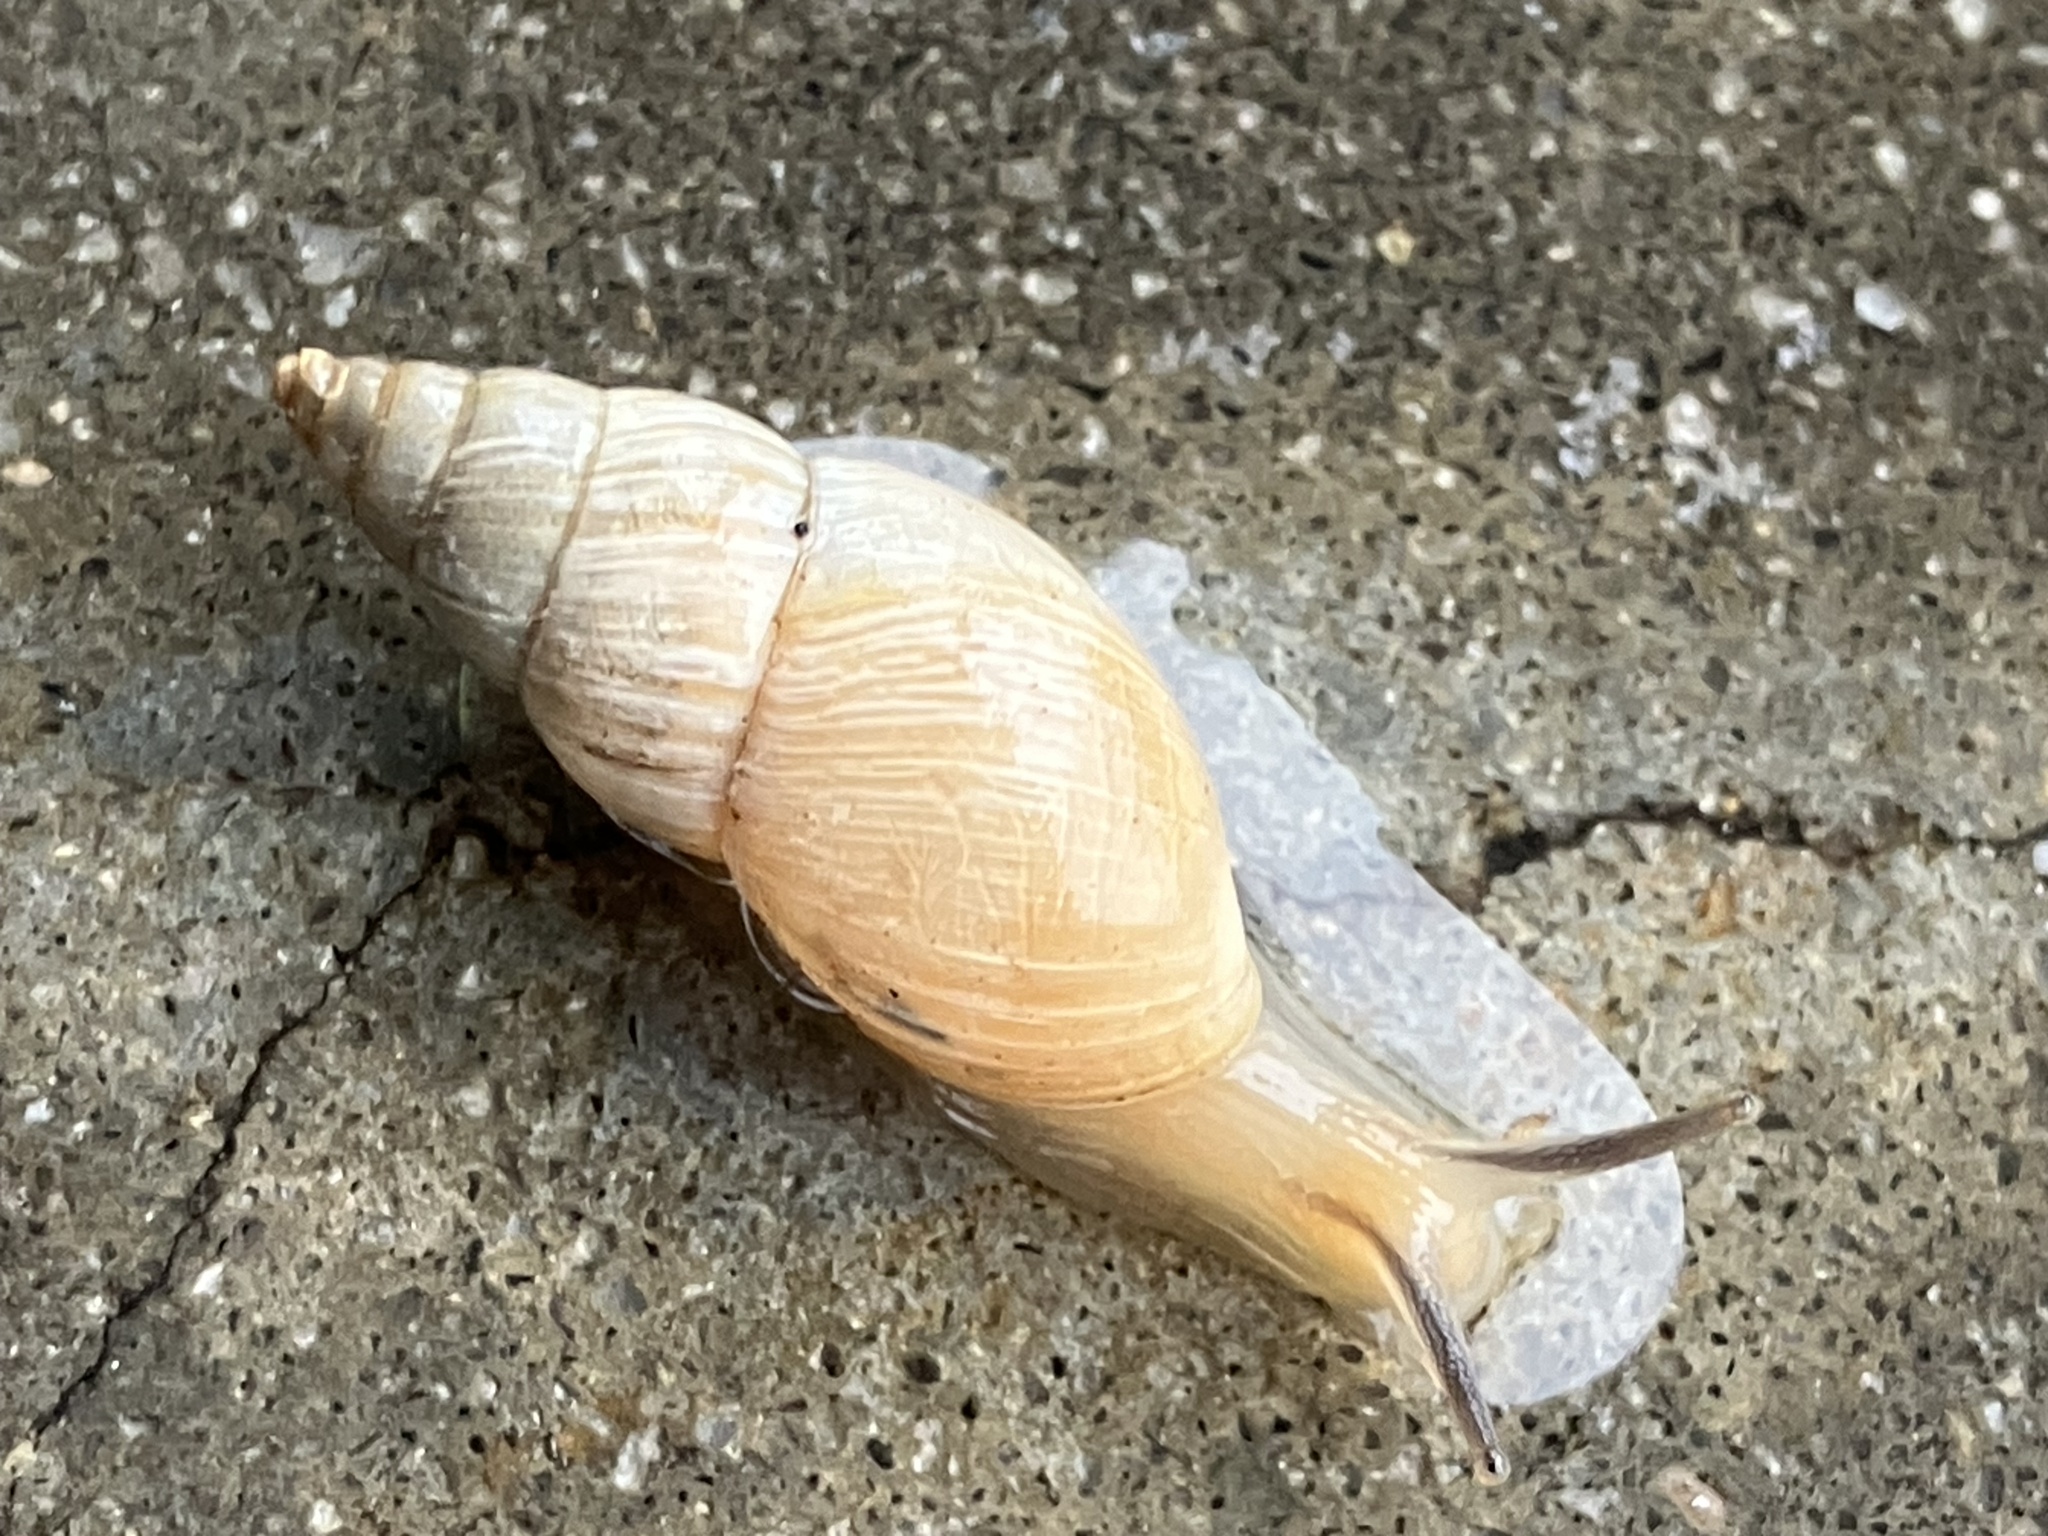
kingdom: Animalia
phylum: Mollusca
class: Gastropoda
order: Stylommatophora
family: Bulimulidae
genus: Bulimulus
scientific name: Bulimulus bonariensis
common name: Snail
